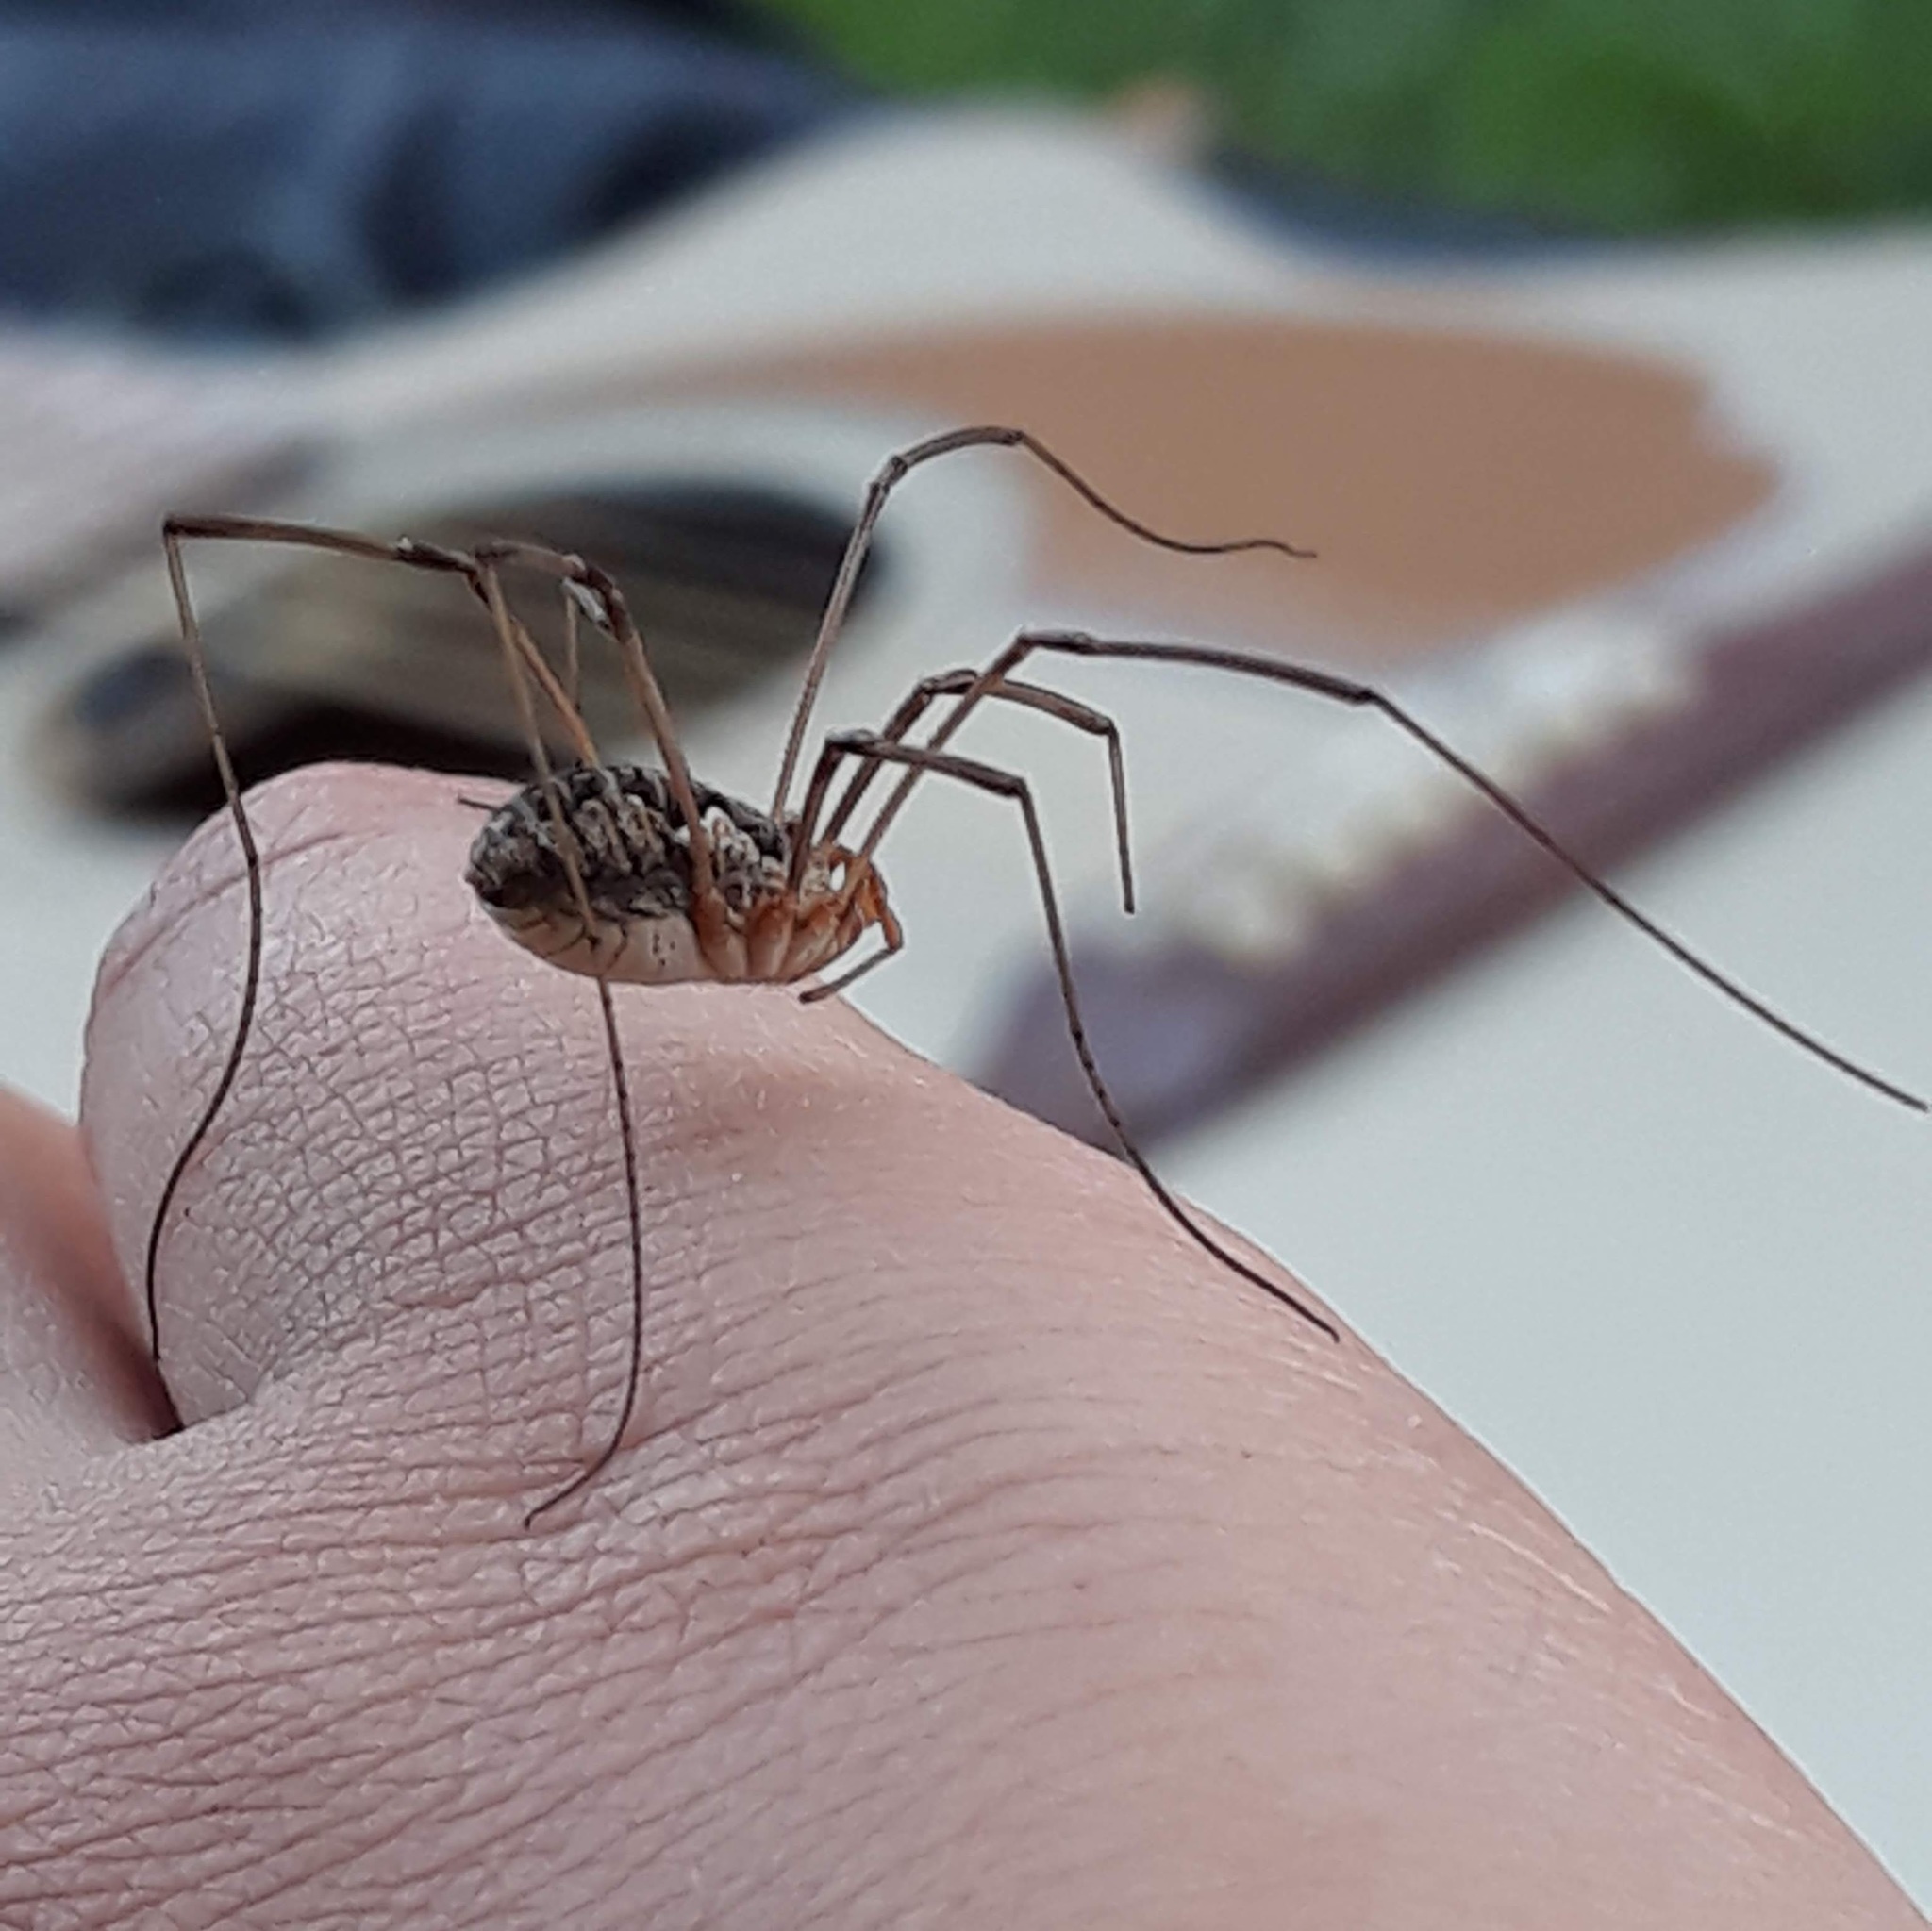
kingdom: Animalia
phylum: Arthropoda
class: Arachnida
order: Opiliones
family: Phalangiidae
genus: Phalangium
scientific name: Phalangium opilio
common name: Daddy longleg
